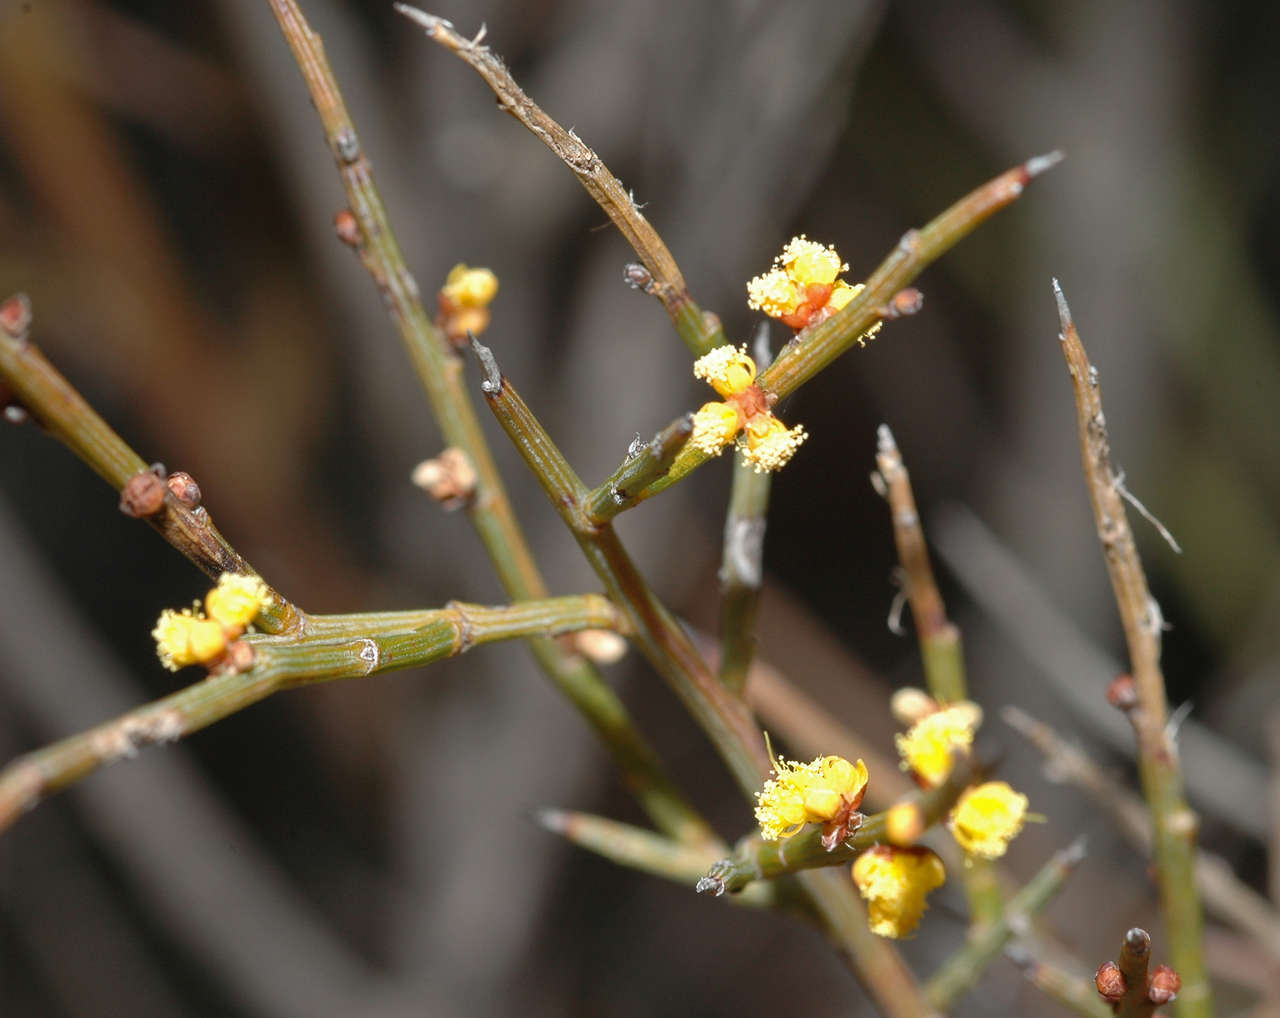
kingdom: Plantae
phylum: Tracheophyta
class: Magnoliopsida
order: Fabales
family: Fabaceae
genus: Acacia
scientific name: Acacia spinescens
